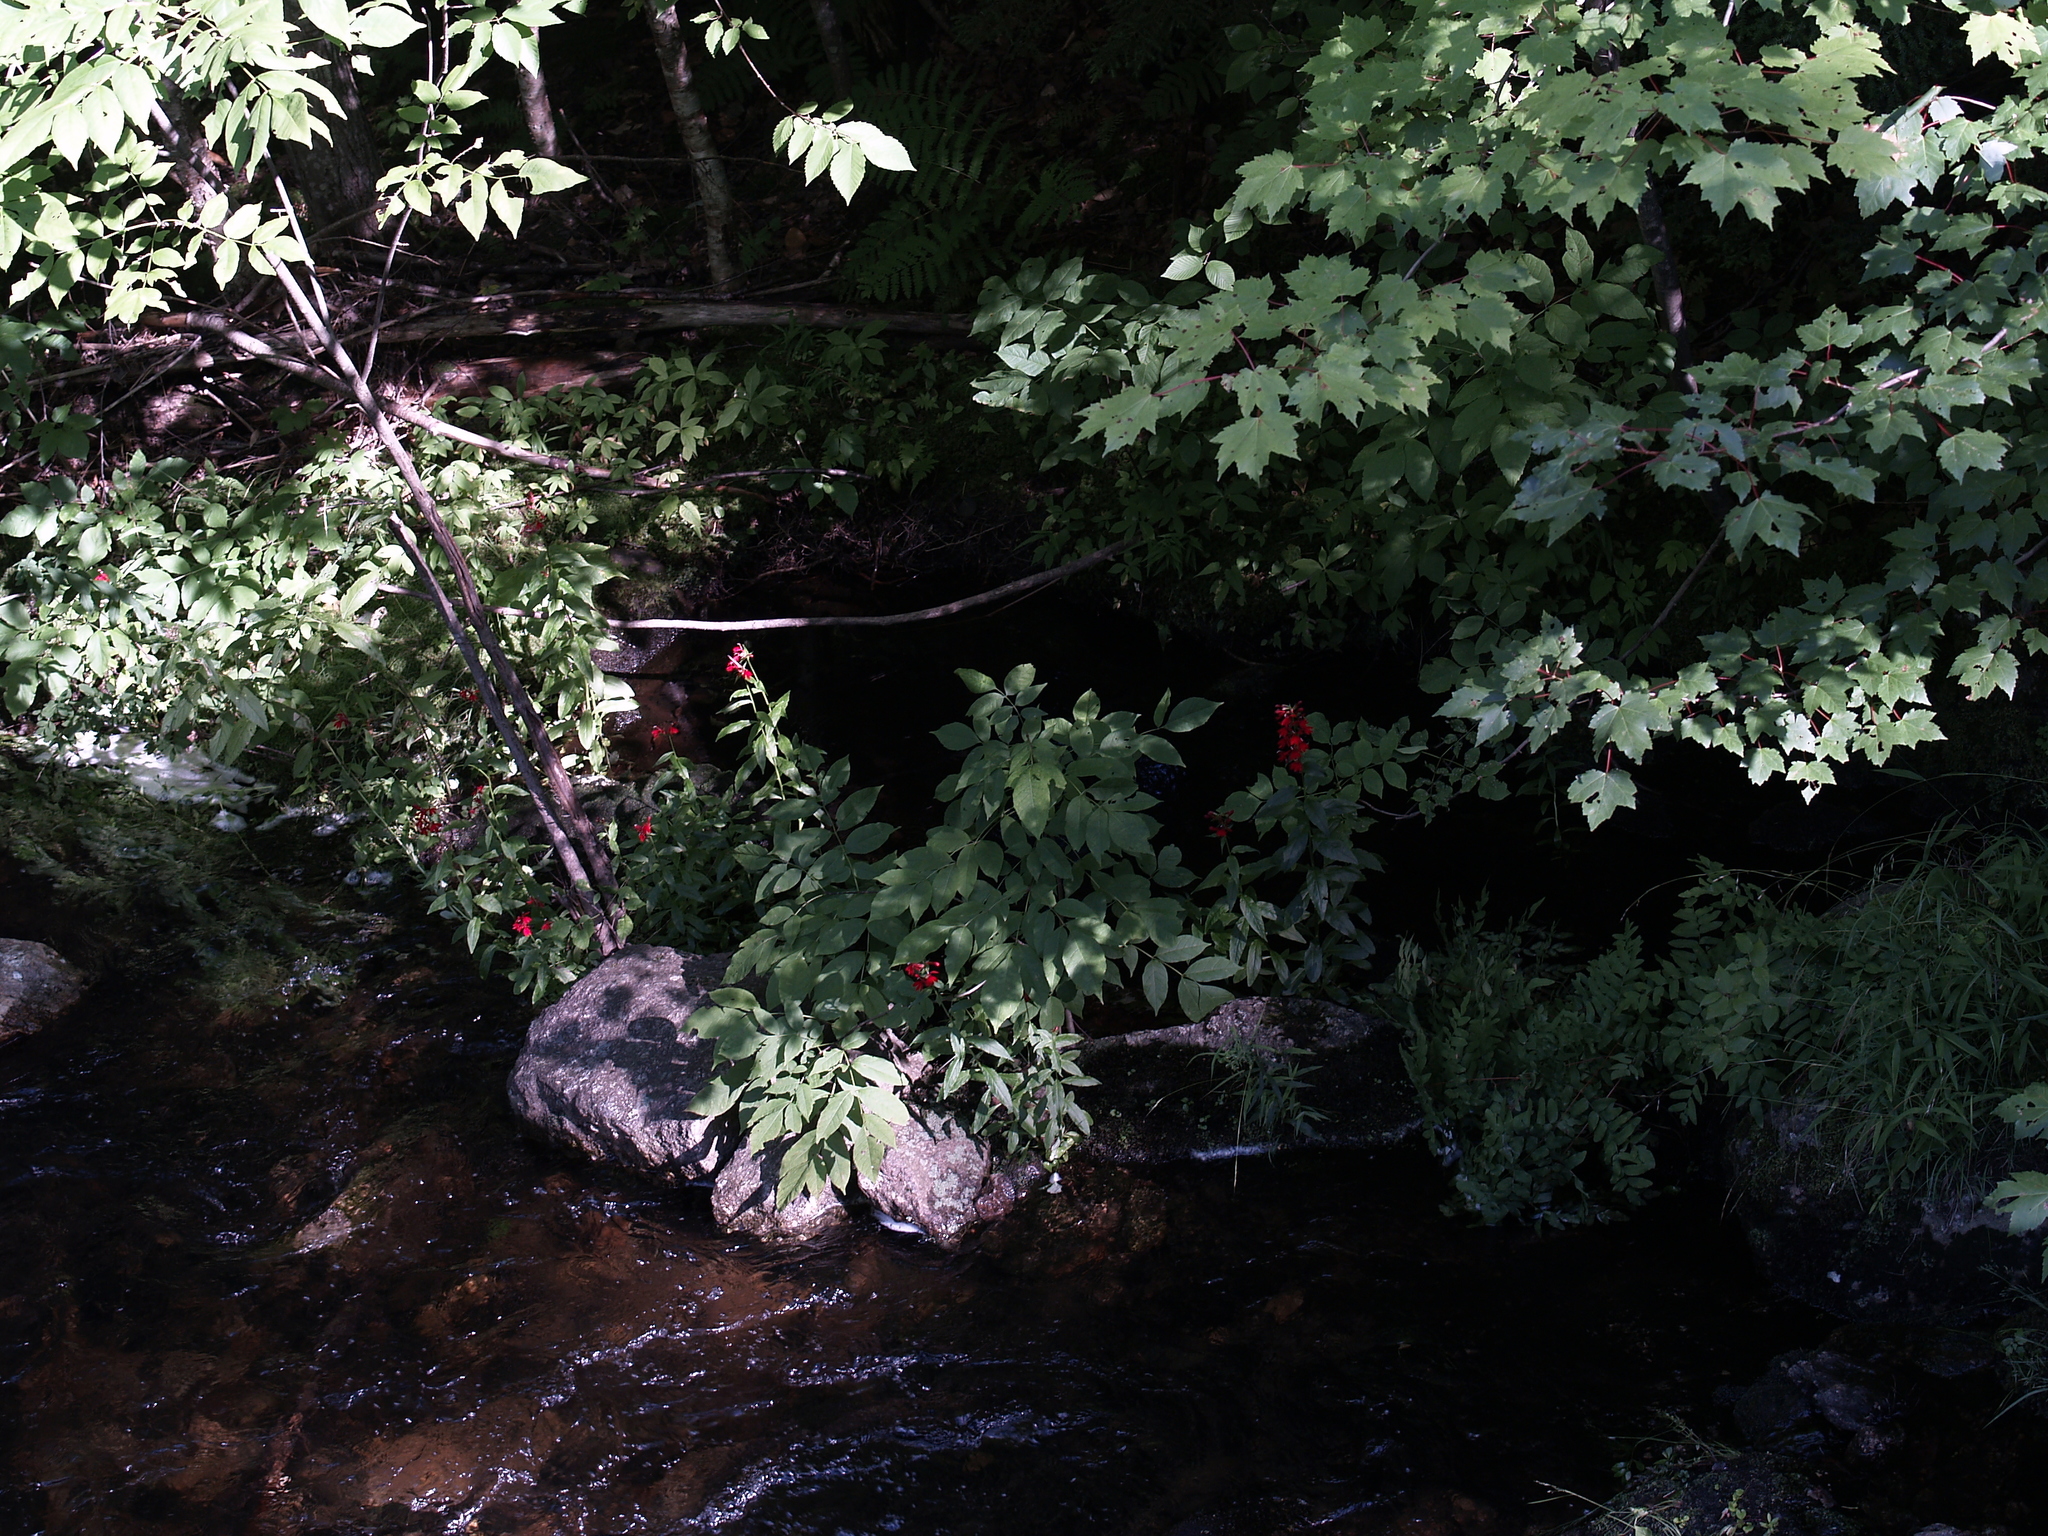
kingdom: Plantae
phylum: Tracheophyta
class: Magnoliopsida
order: Sapindales
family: Sapindaceae
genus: Acer
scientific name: Acer rubrum
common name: Red maple
